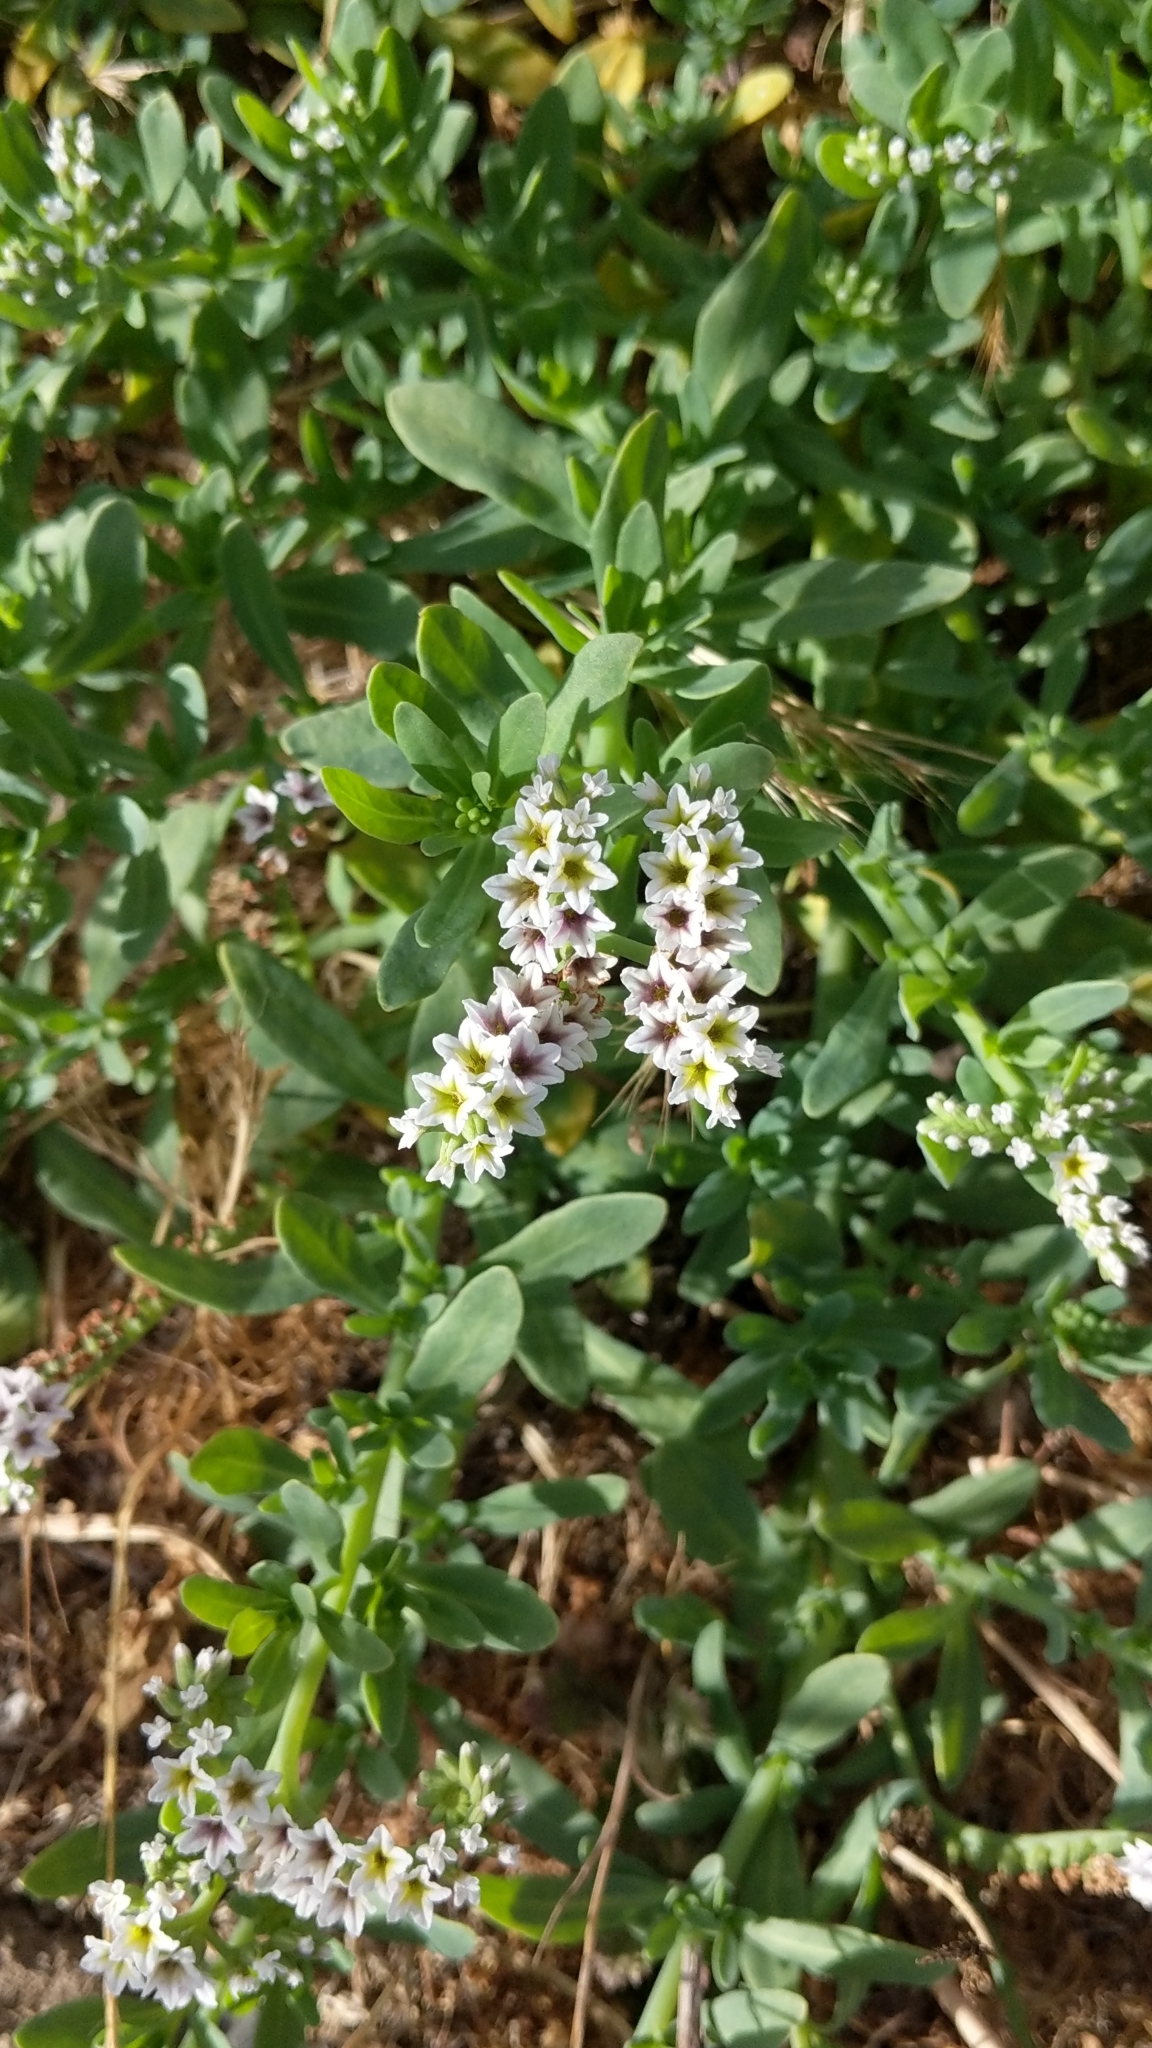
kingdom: Plantae
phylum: Tracheophyta
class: Magnoliopsida
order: Boraginales
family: Heliotropiaceae
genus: Heliotropium
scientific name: Heliotropium curassavicum
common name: Seaside heliotrope
